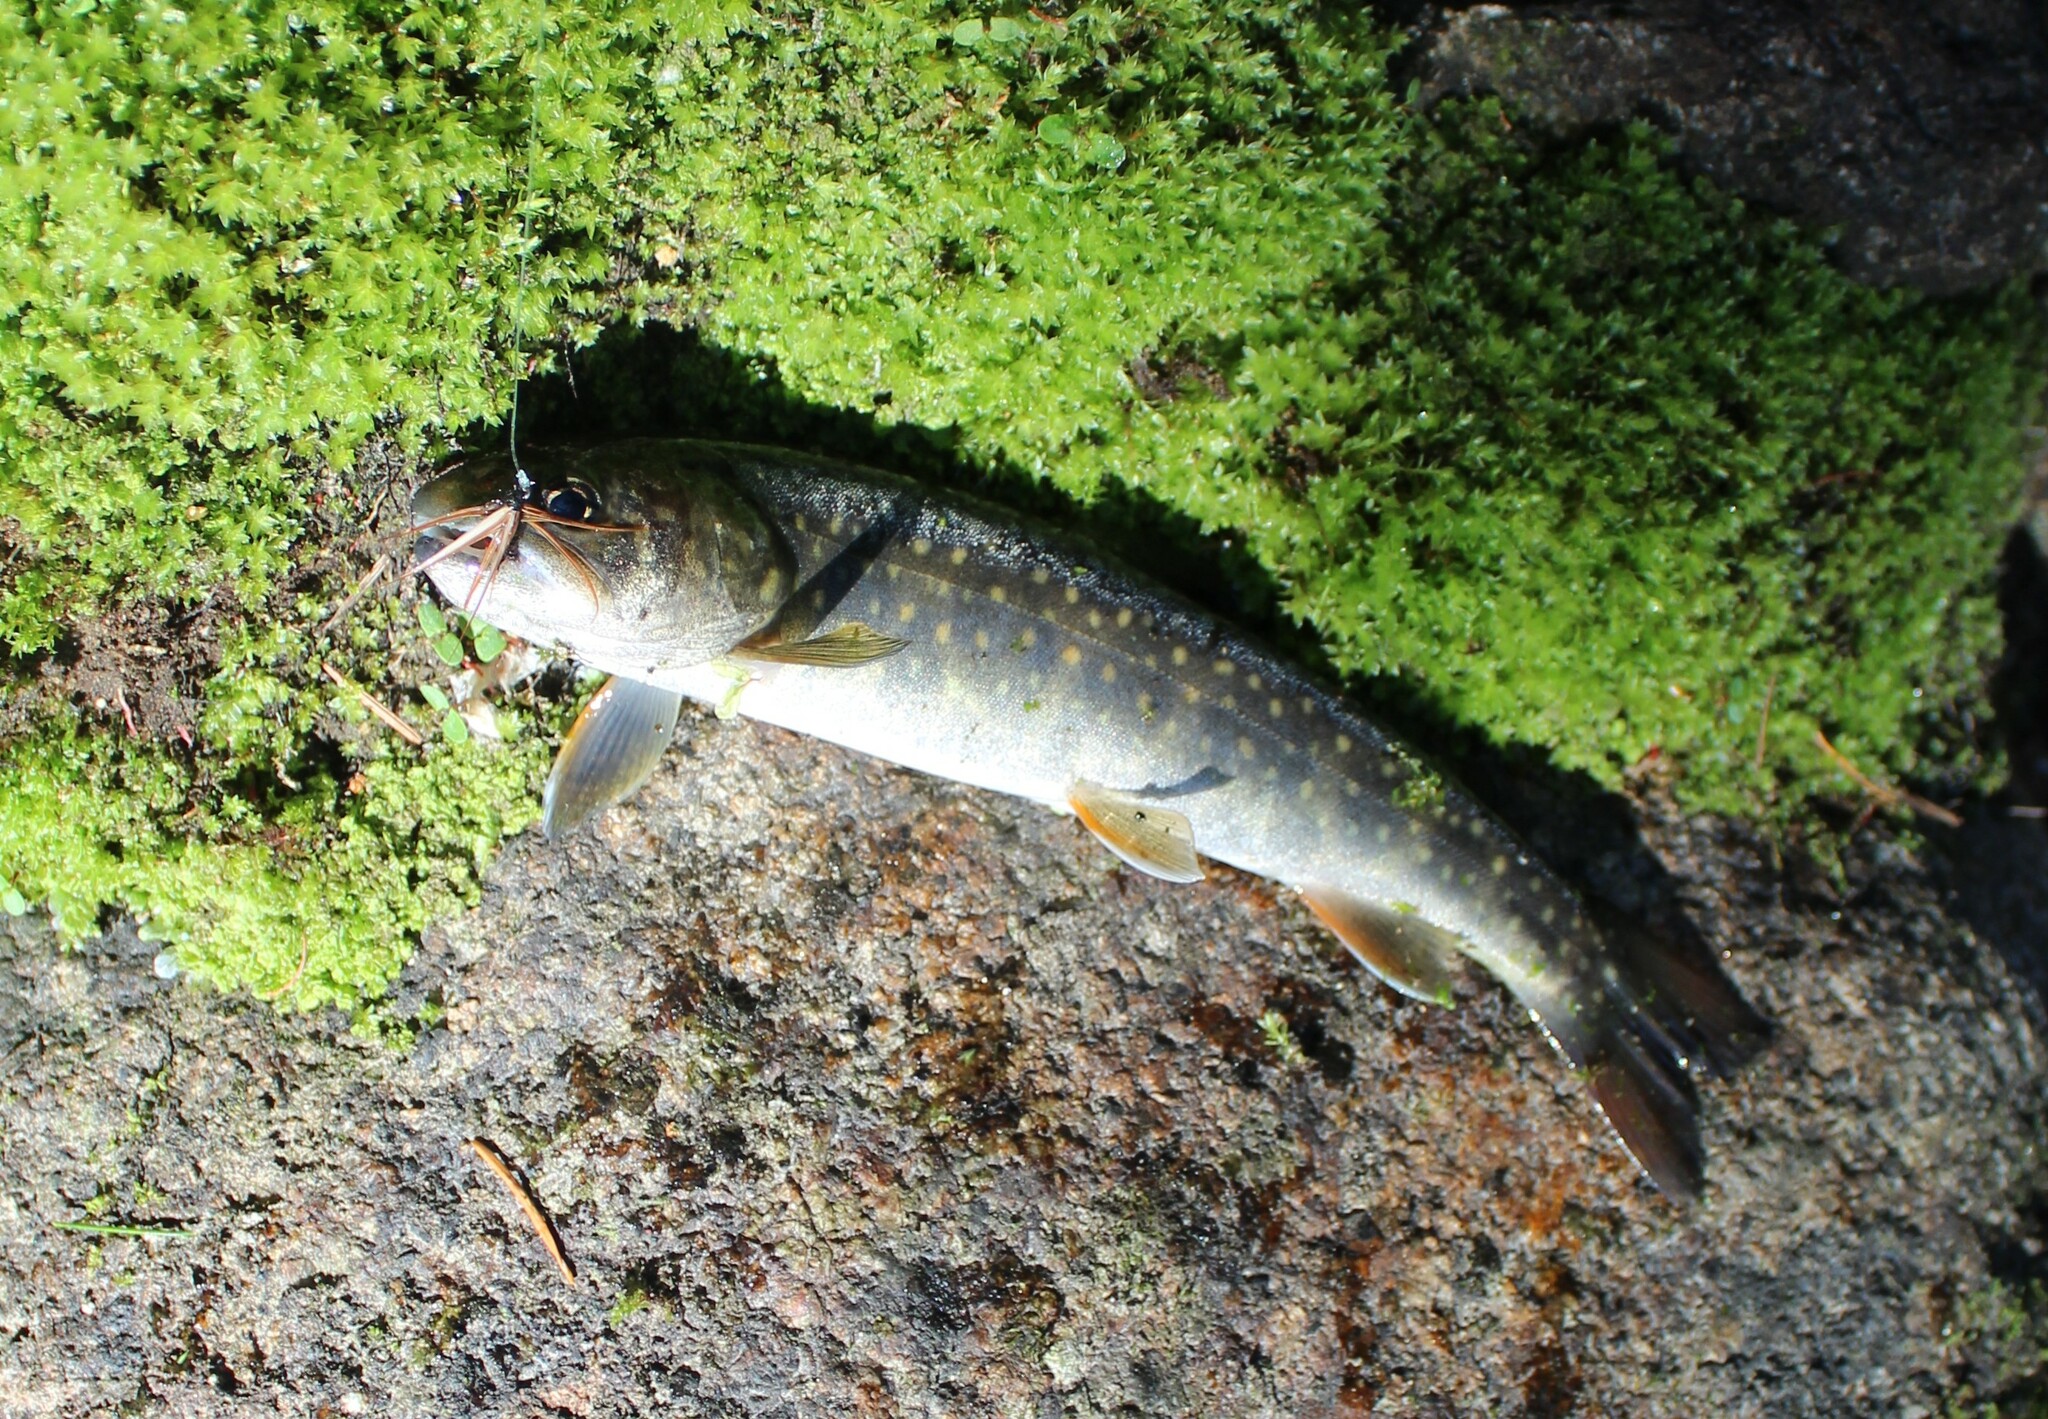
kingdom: Animalia
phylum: Chordata
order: Salmoniformes
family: Salmonidae
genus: Salvelinus
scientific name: Salvelinus confluentus
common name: Bull trout
